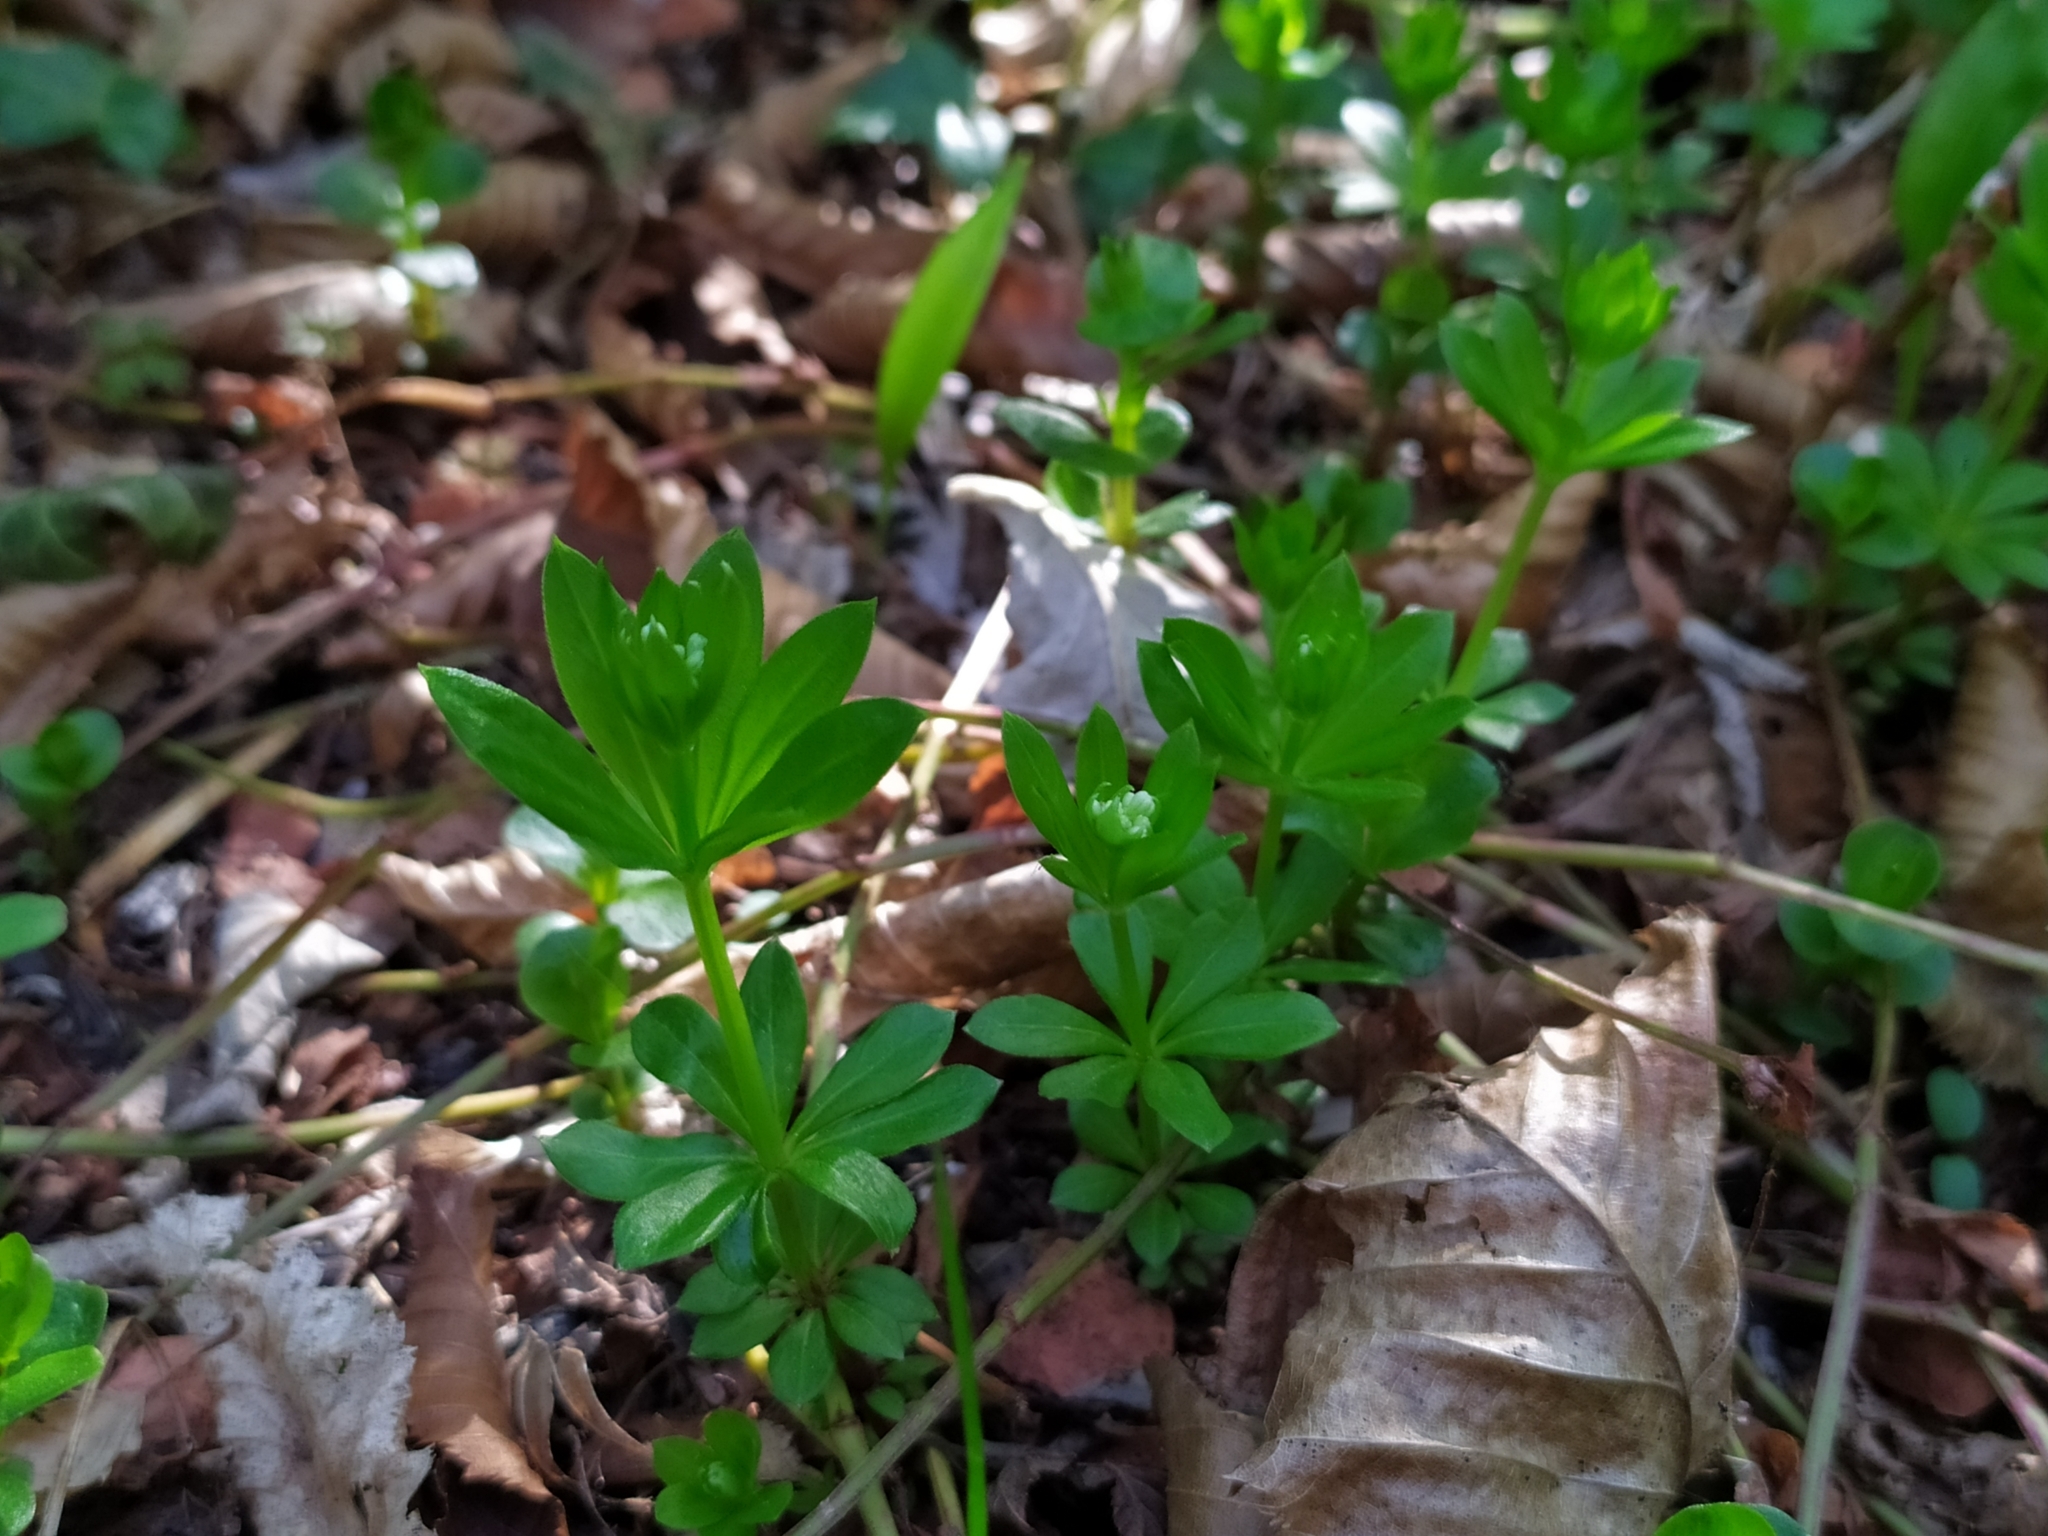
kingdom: Plantae
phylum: Tracheophyta
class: Magnoliopsida
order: Gentianales
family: Rubiaceae
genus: Galium
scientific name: Galium odoratum
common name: Sweet woodruff
